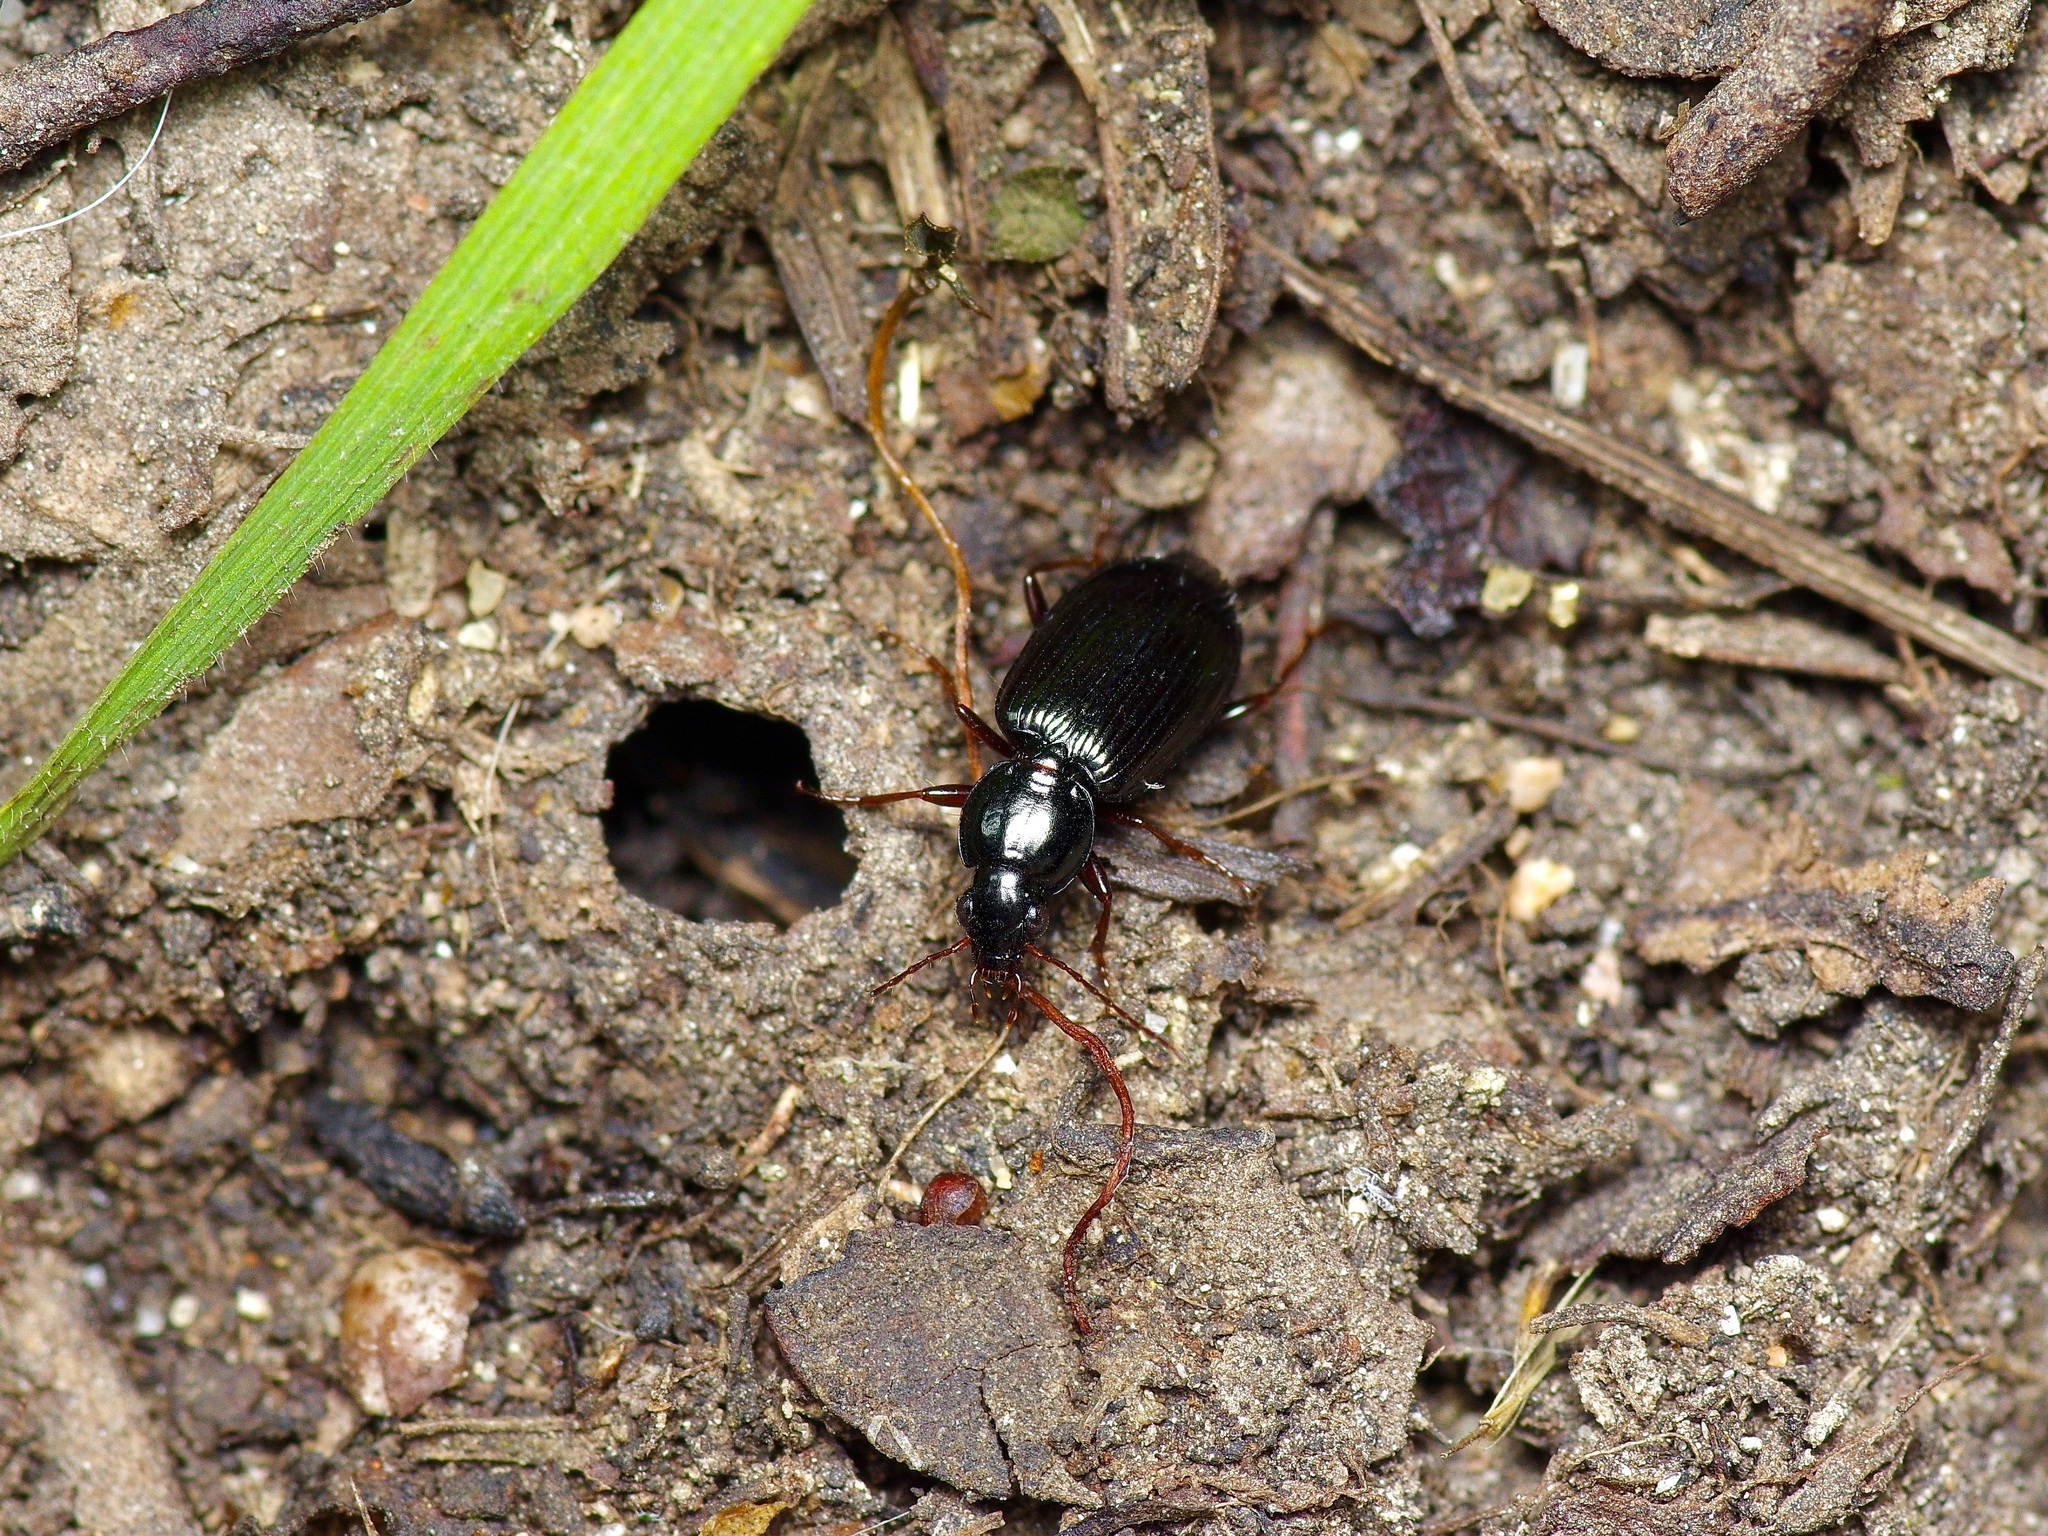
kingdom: Animalia
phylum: Arthropoda
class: Insecta
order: Coleoptera
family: Carabidae
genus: Agonum
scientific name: Agonum punctiforme
